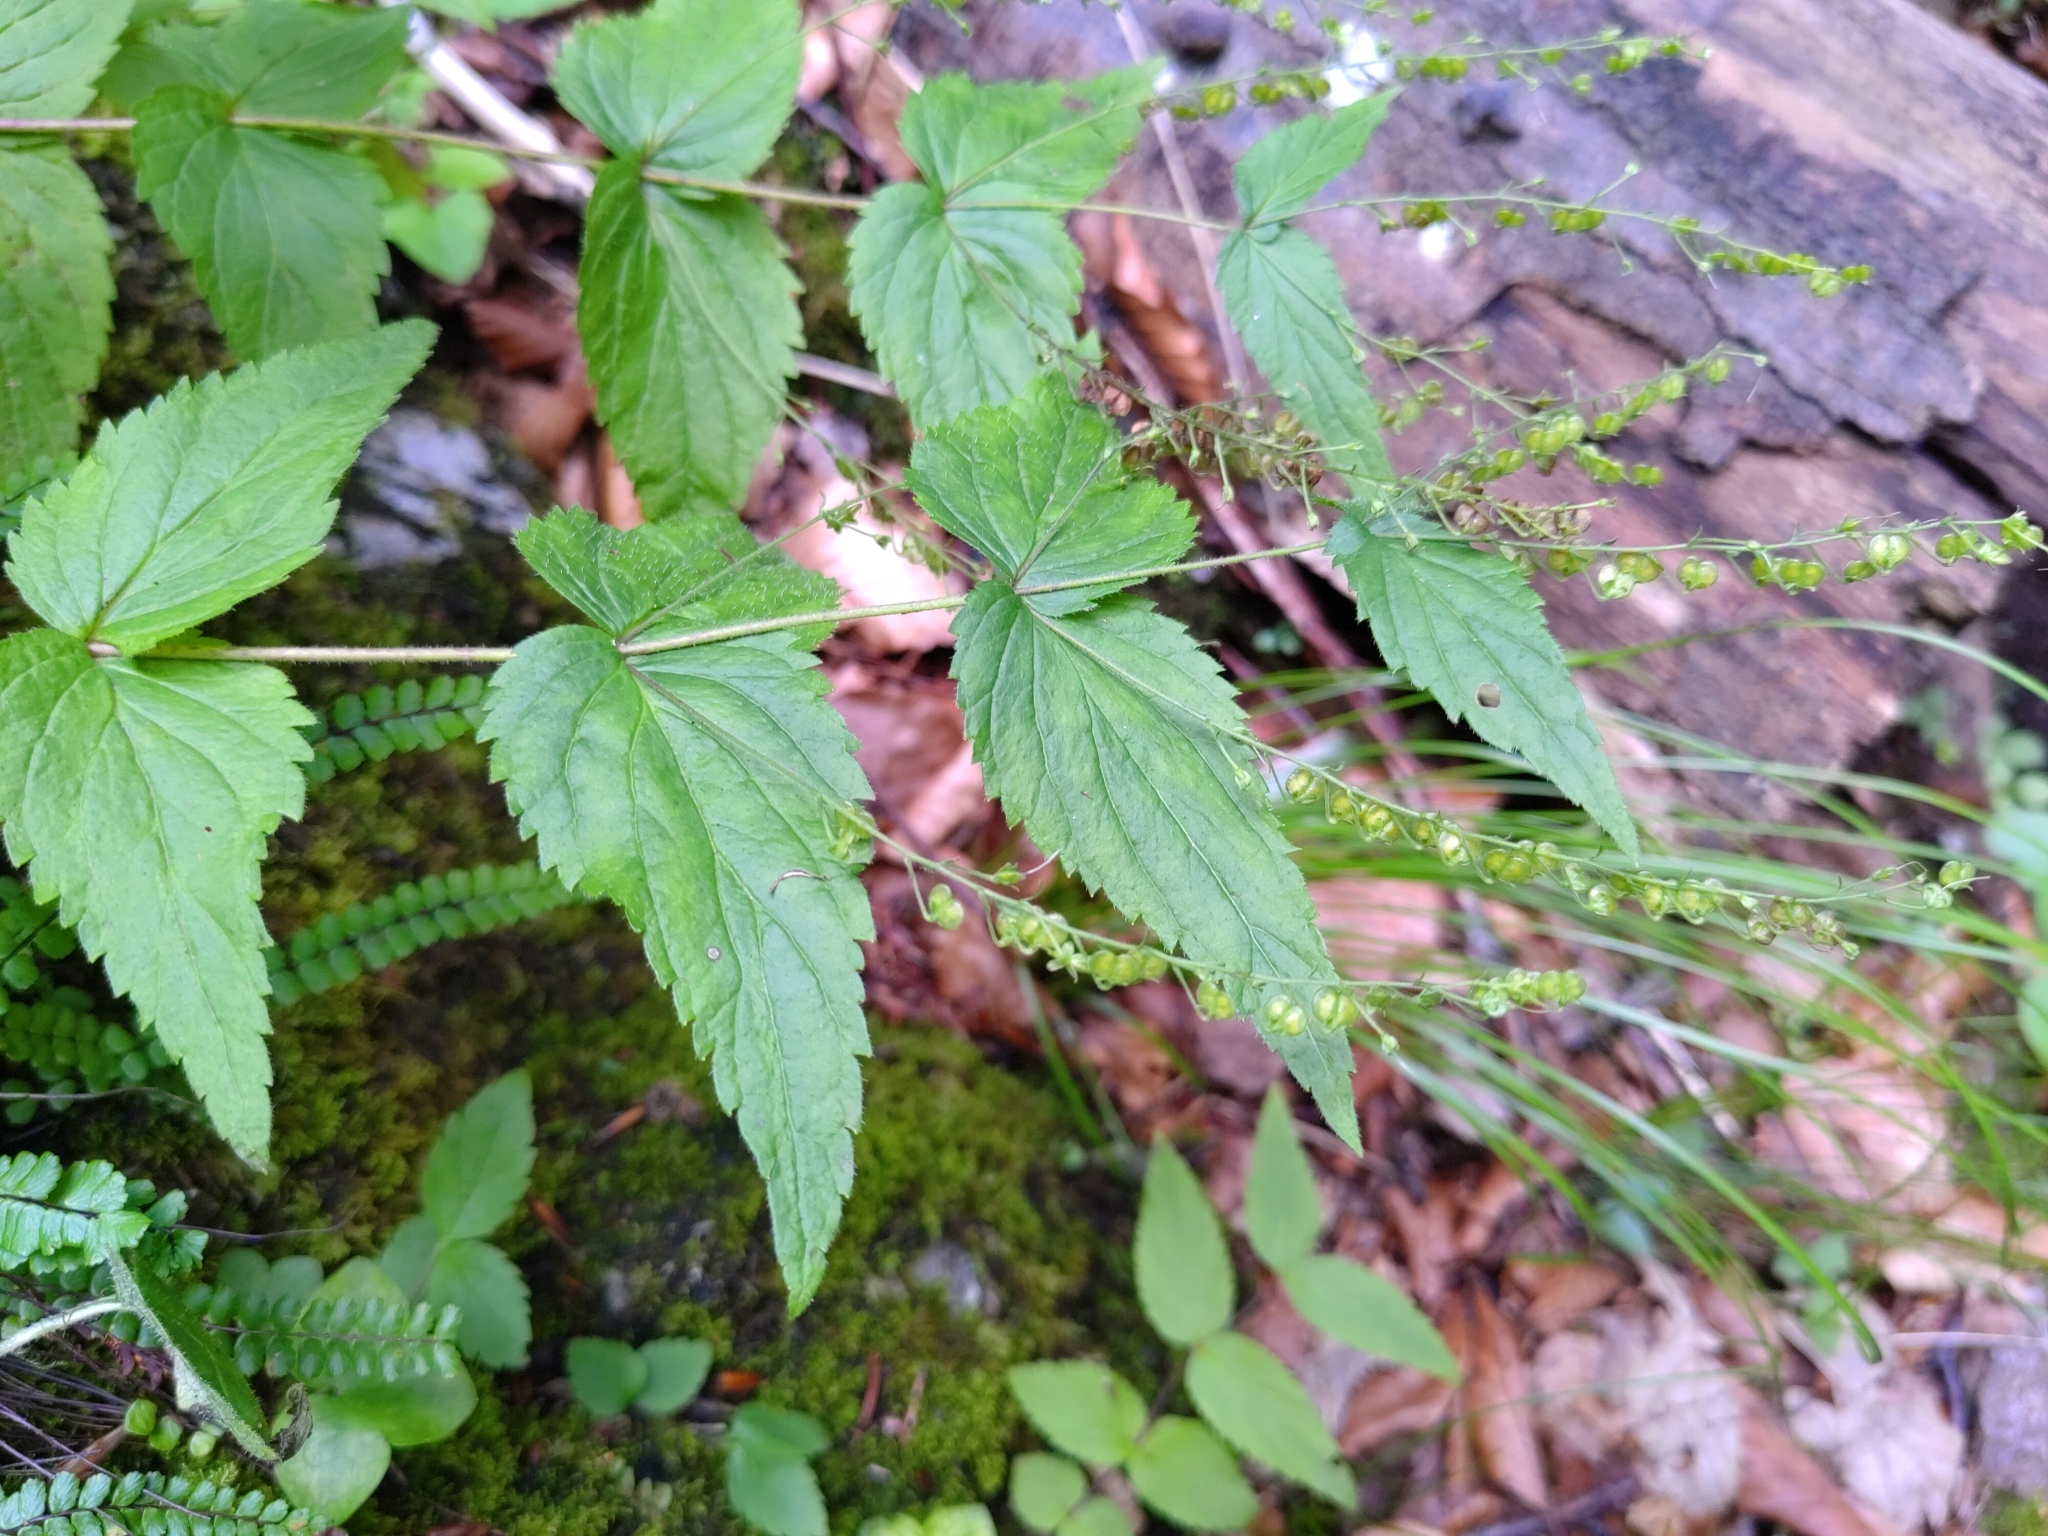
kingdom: Plantae
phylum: Tracheophyta
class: Magnoliopsida
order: Lamiales
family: Plantaginaceae
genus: Veronica
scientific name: Veronica urticifolia
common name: Nettle-leaf speedwell
